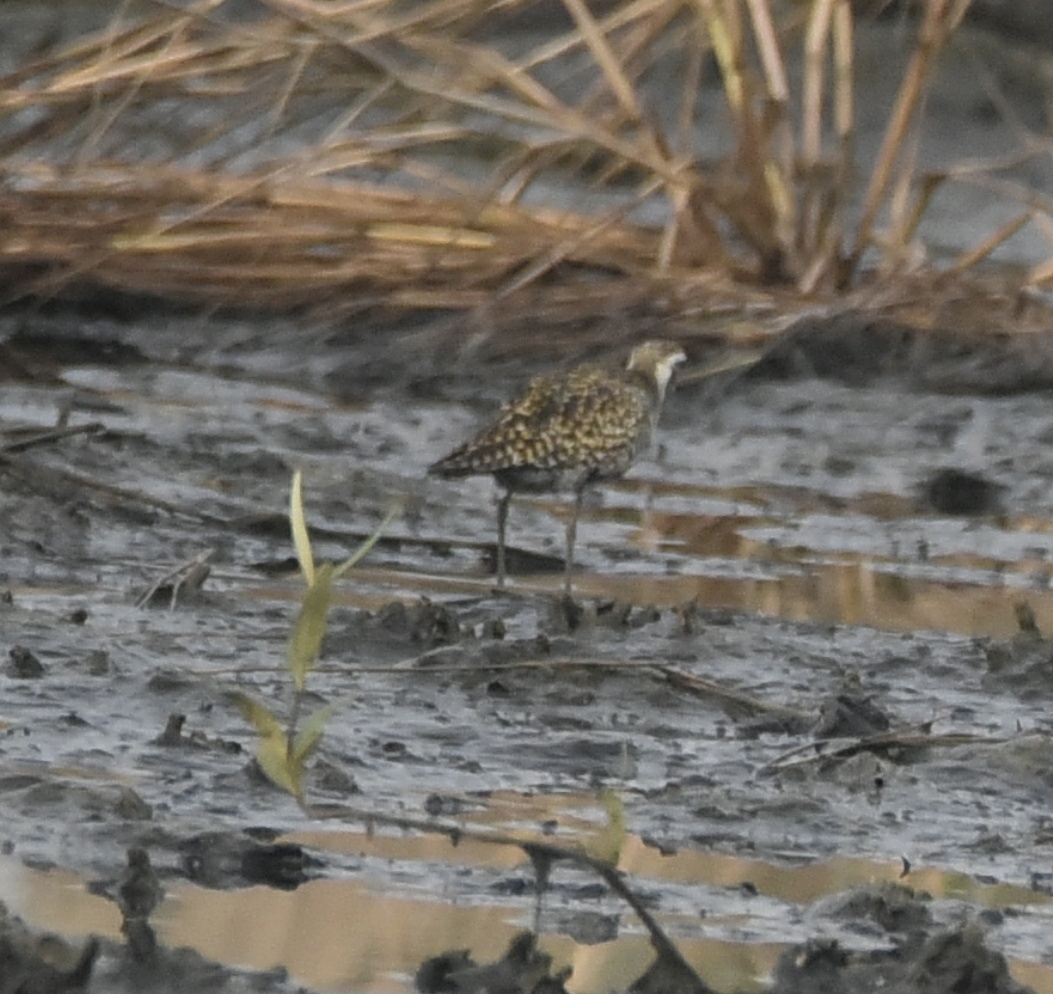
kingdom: Animalia
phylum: Chordata
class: Aves
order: Charadriiformes
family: Charadriidae
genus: Pluvialis
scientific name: Pluvialis fulva
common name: Pacific golden plover
